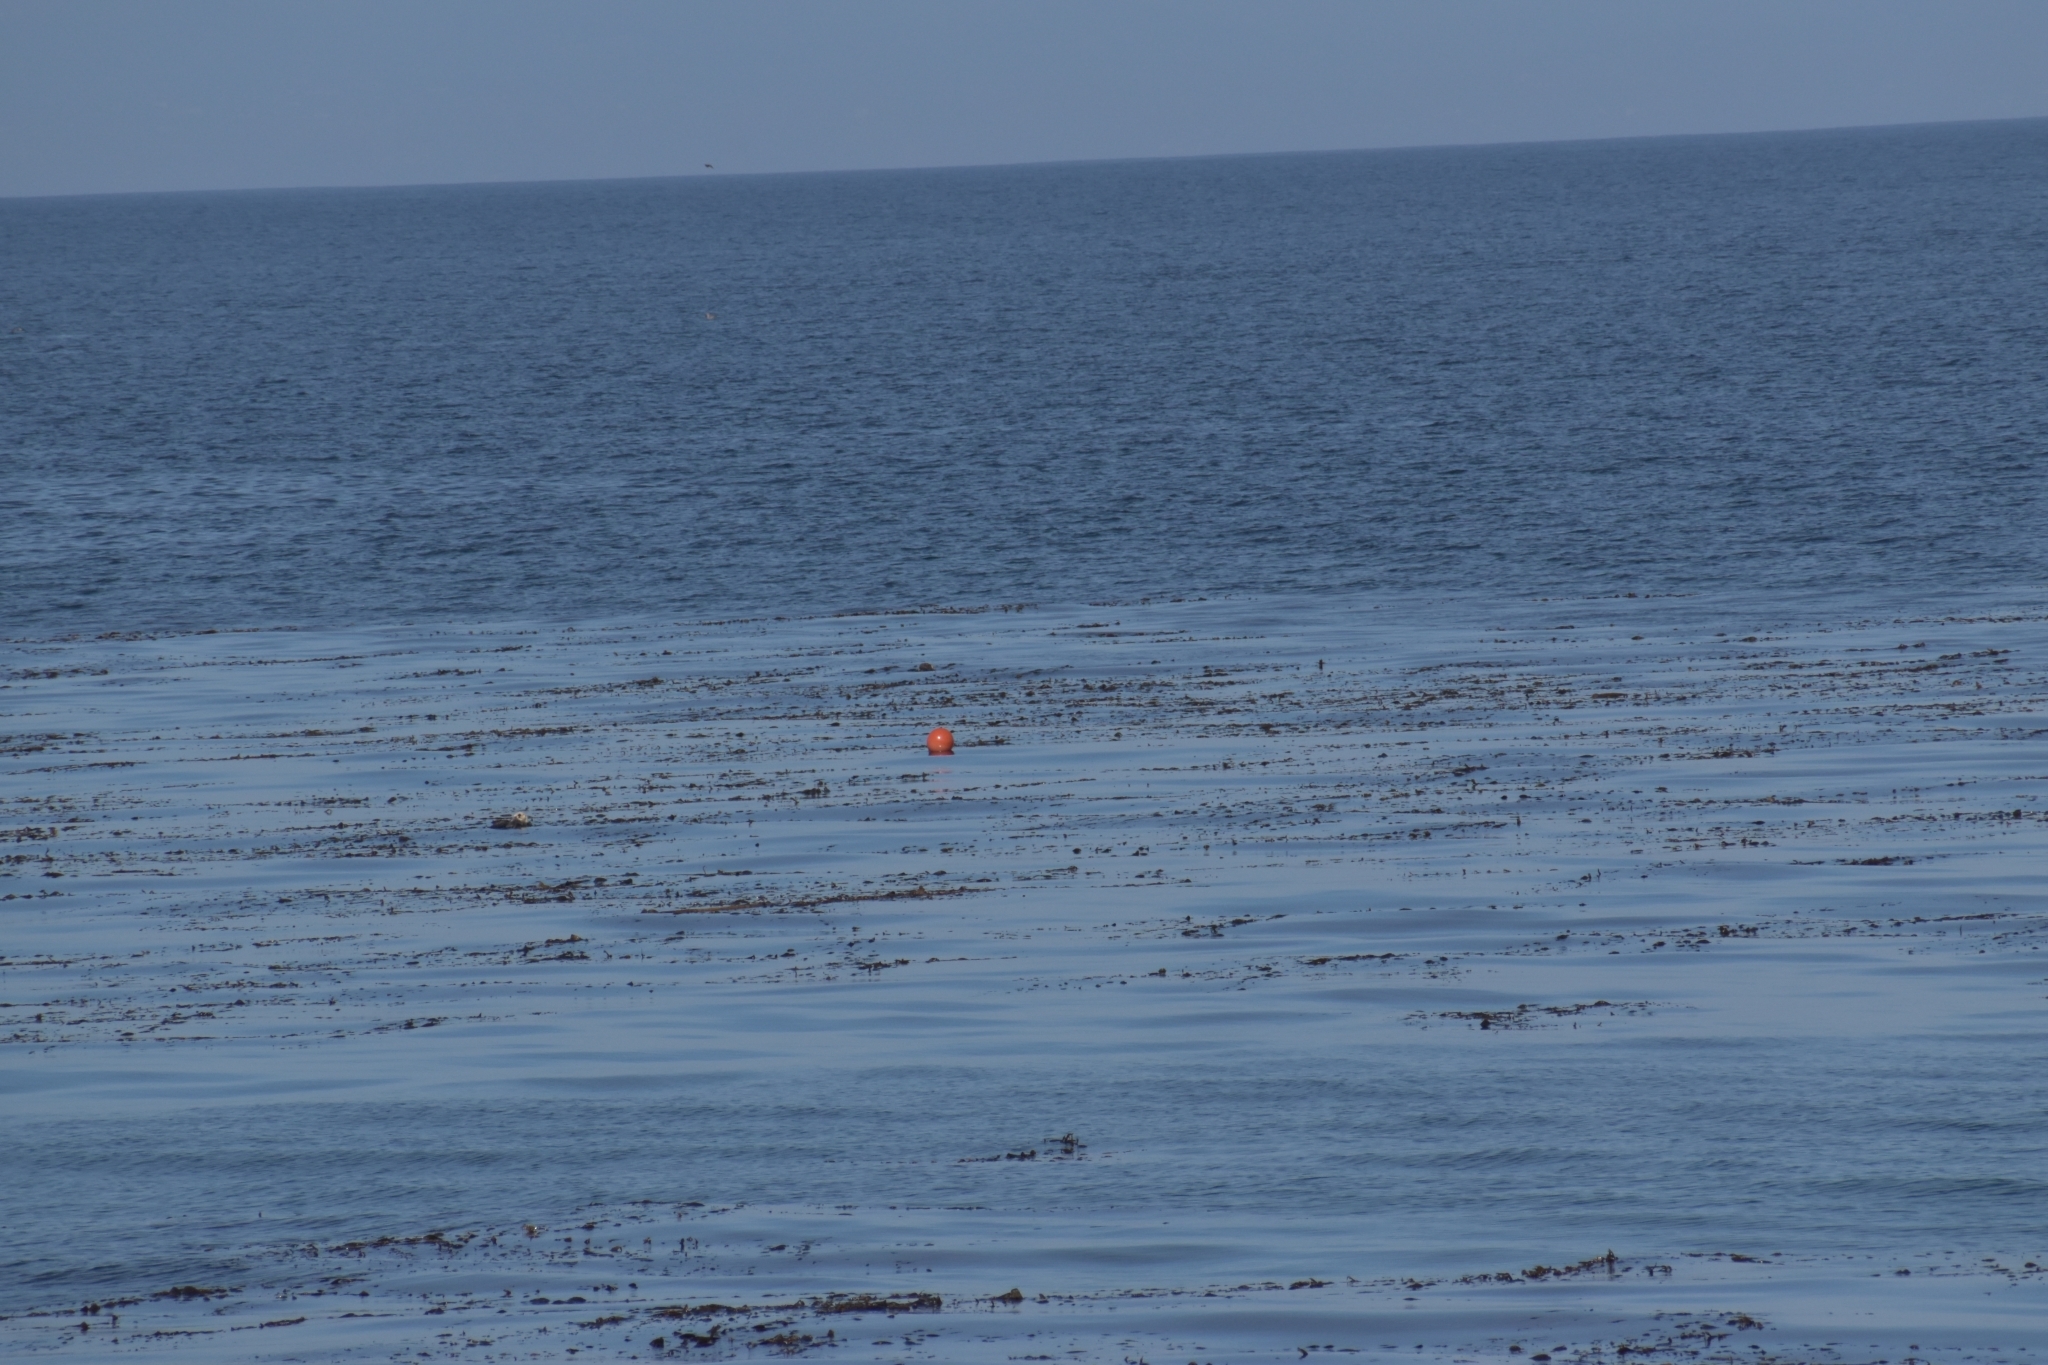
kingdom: Animalia
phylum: Chordata
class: Mammalia
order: Carnivora
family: Mustelidae
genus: Enhydra
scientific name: Enhydra lutris
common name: Sea otter
